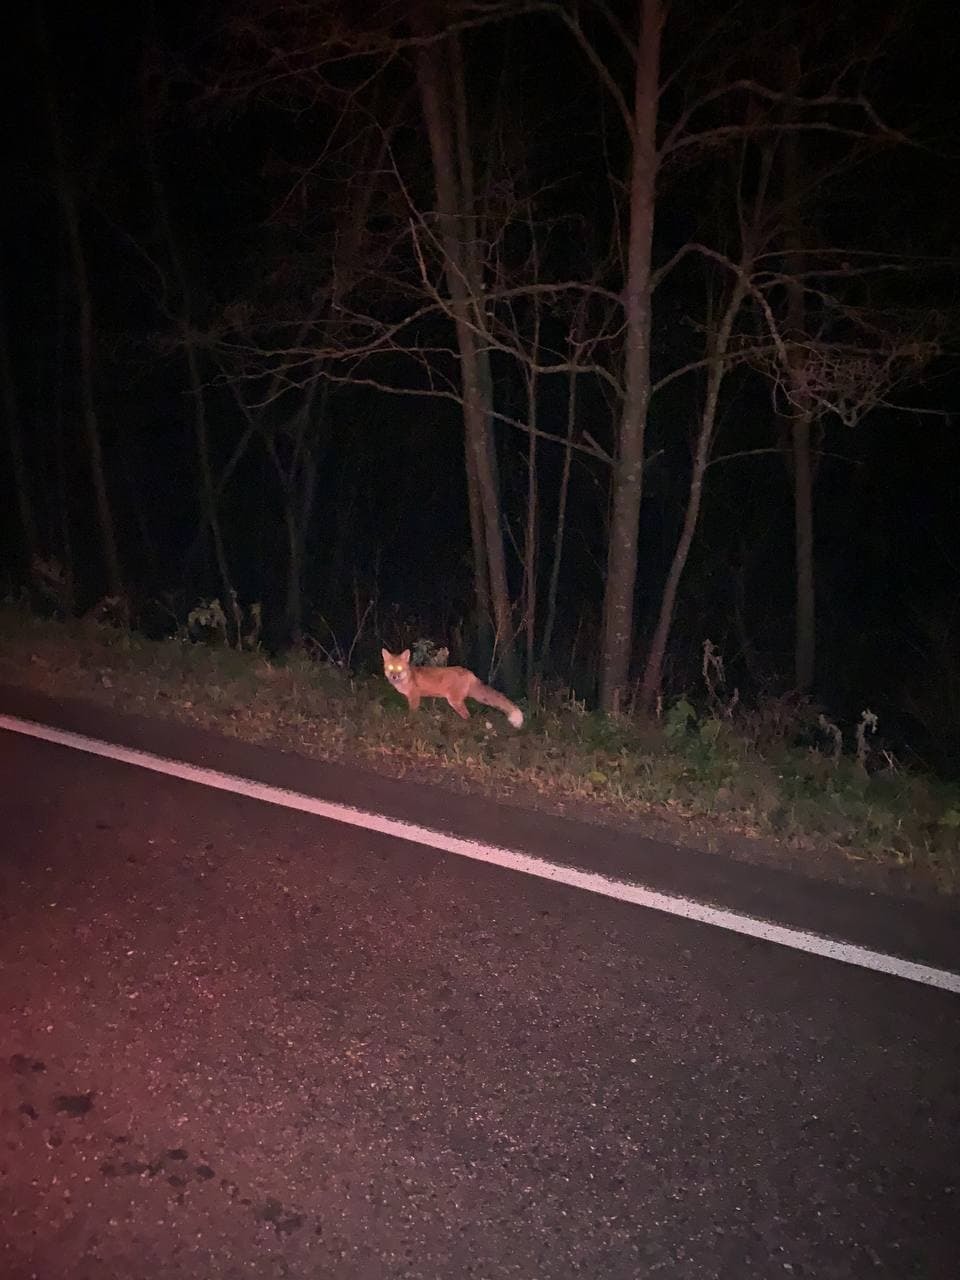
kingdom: Animalia
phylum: Chordata
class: Mammalia
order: Carnivora
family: Canidae
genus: Vulpes
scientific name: Vulpes vulpes
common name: Red fox
